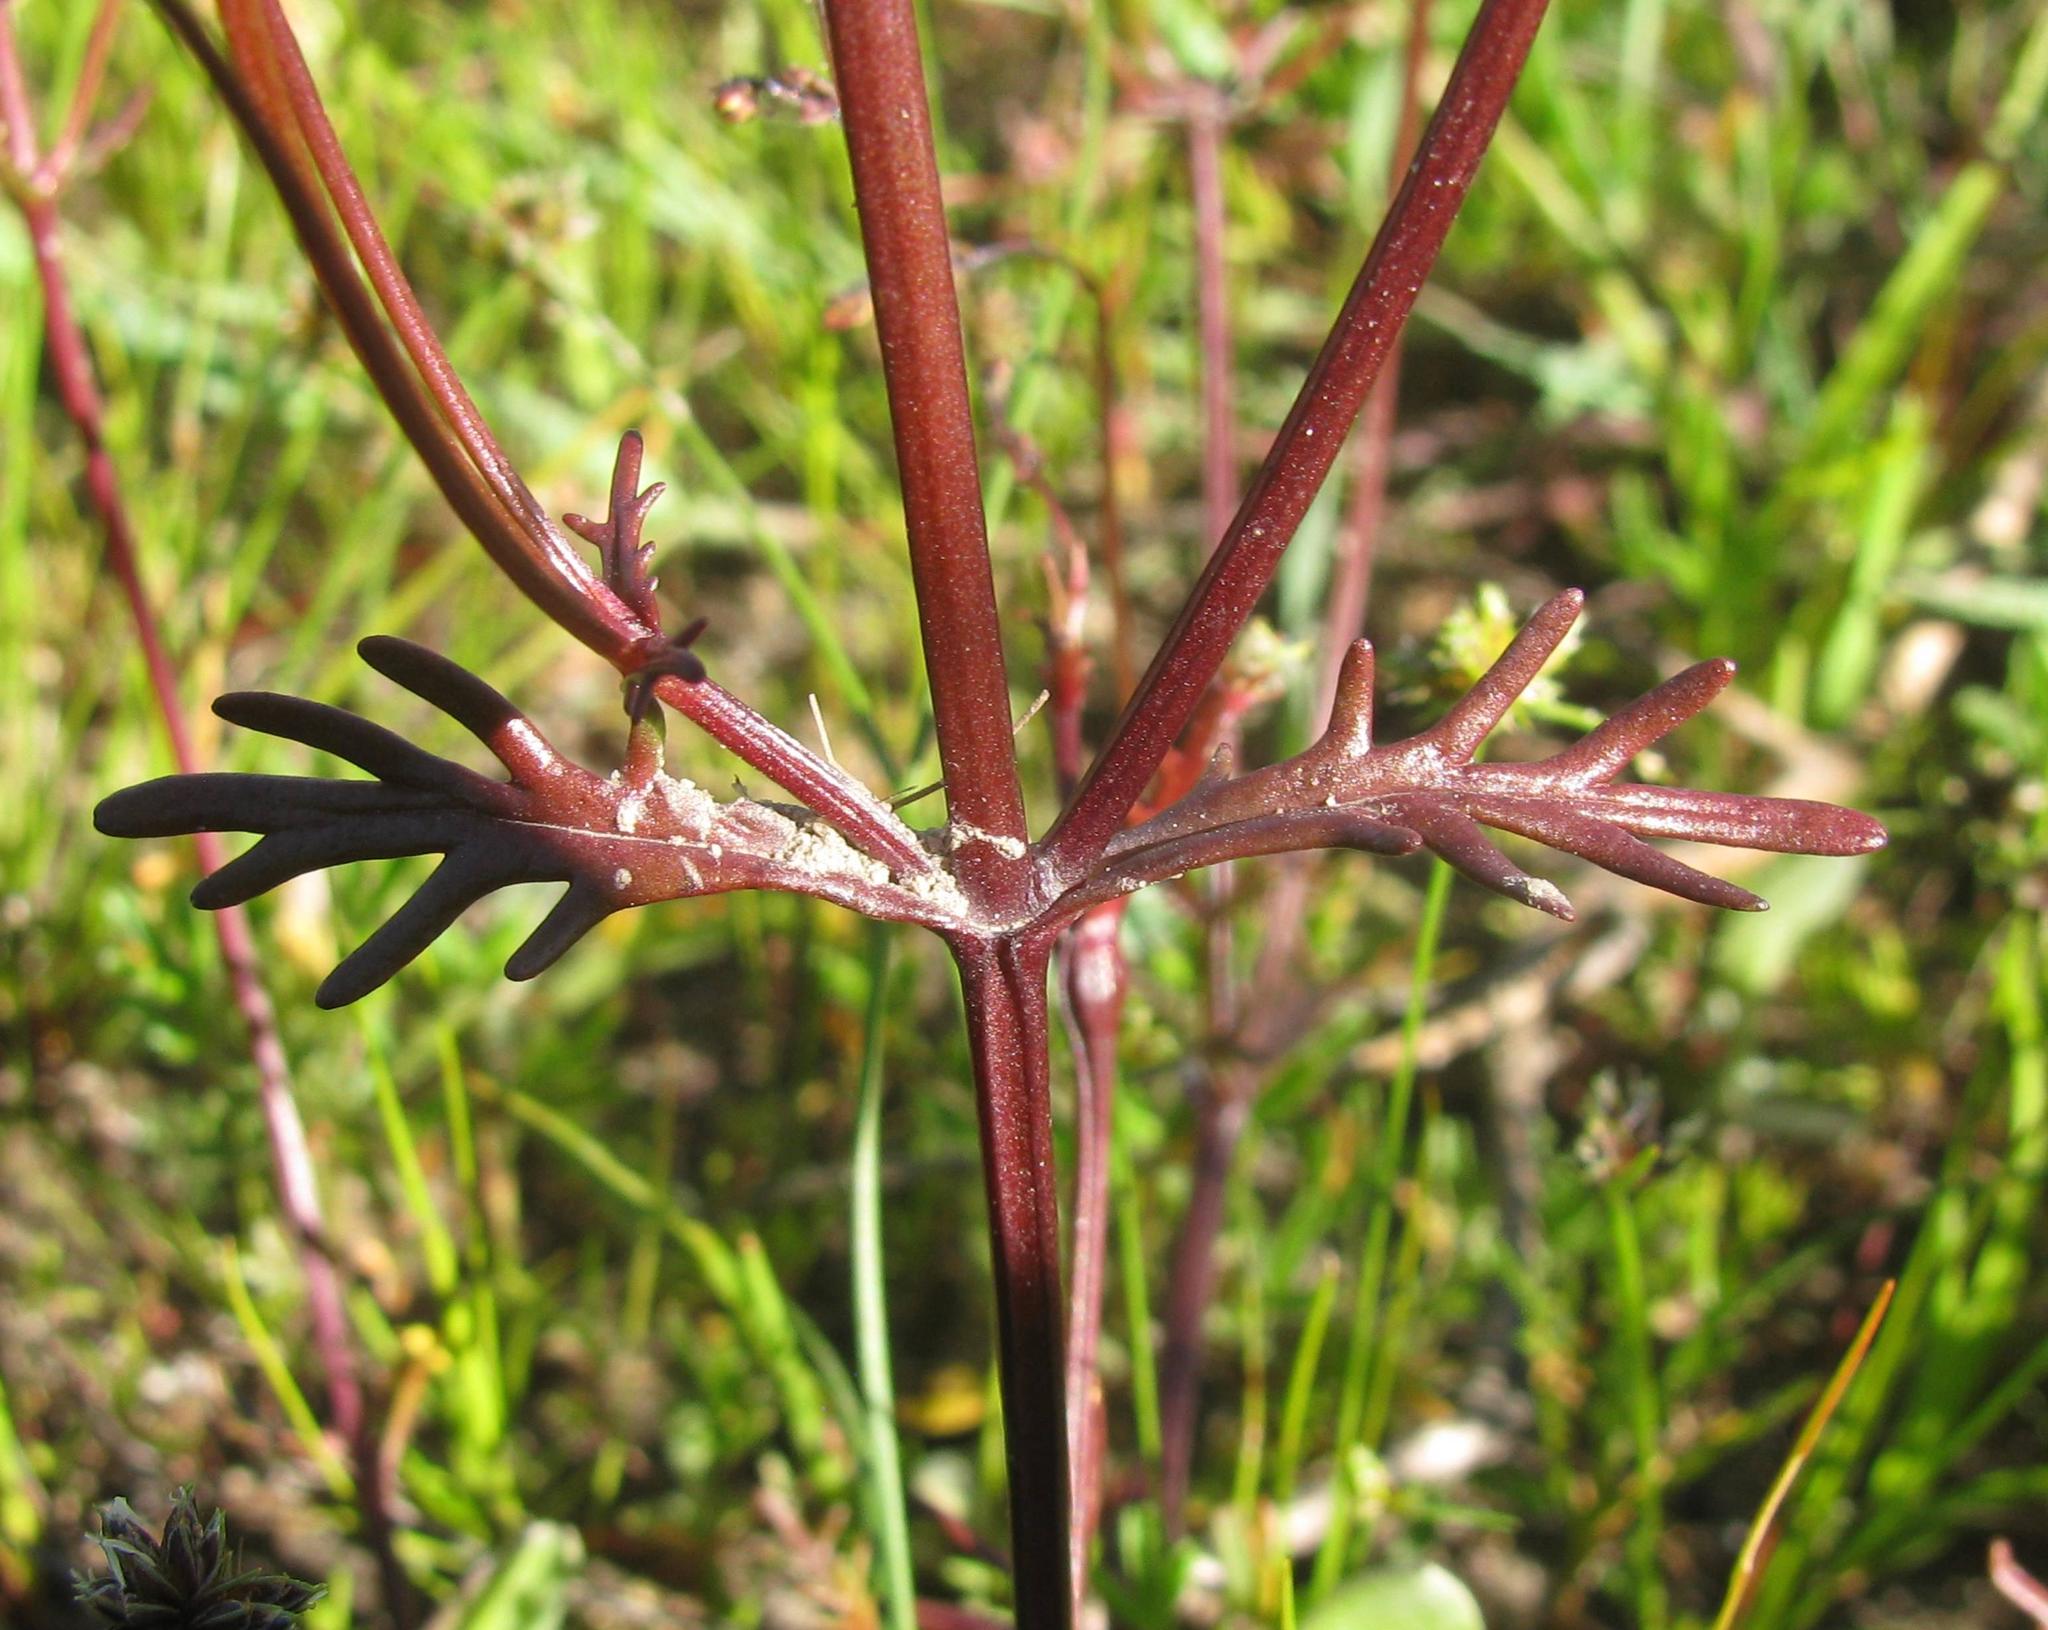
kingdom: Plantae
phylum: Tracheophyta
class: Magnoliopsida
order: Lamiales
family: Scrophulariaceae
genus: Nemesia
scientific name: Nemesia pinnata
